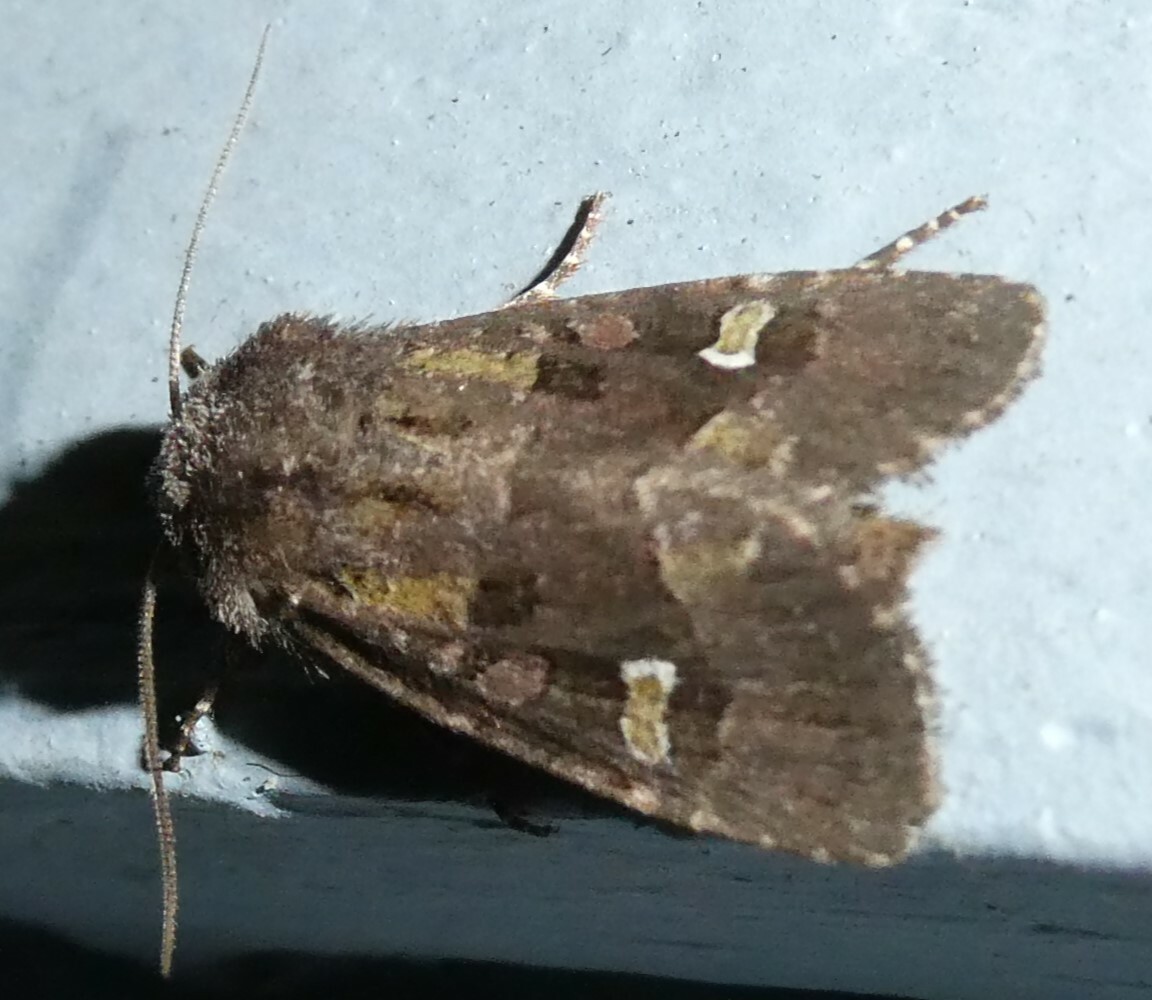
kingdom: Animalia
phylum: Arthropoda
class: Insecta
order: Lepidoptera
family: Noctuidae
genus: Lacinipolia
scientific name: Lacinipolia renigera
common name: Kidney-spotted minor
